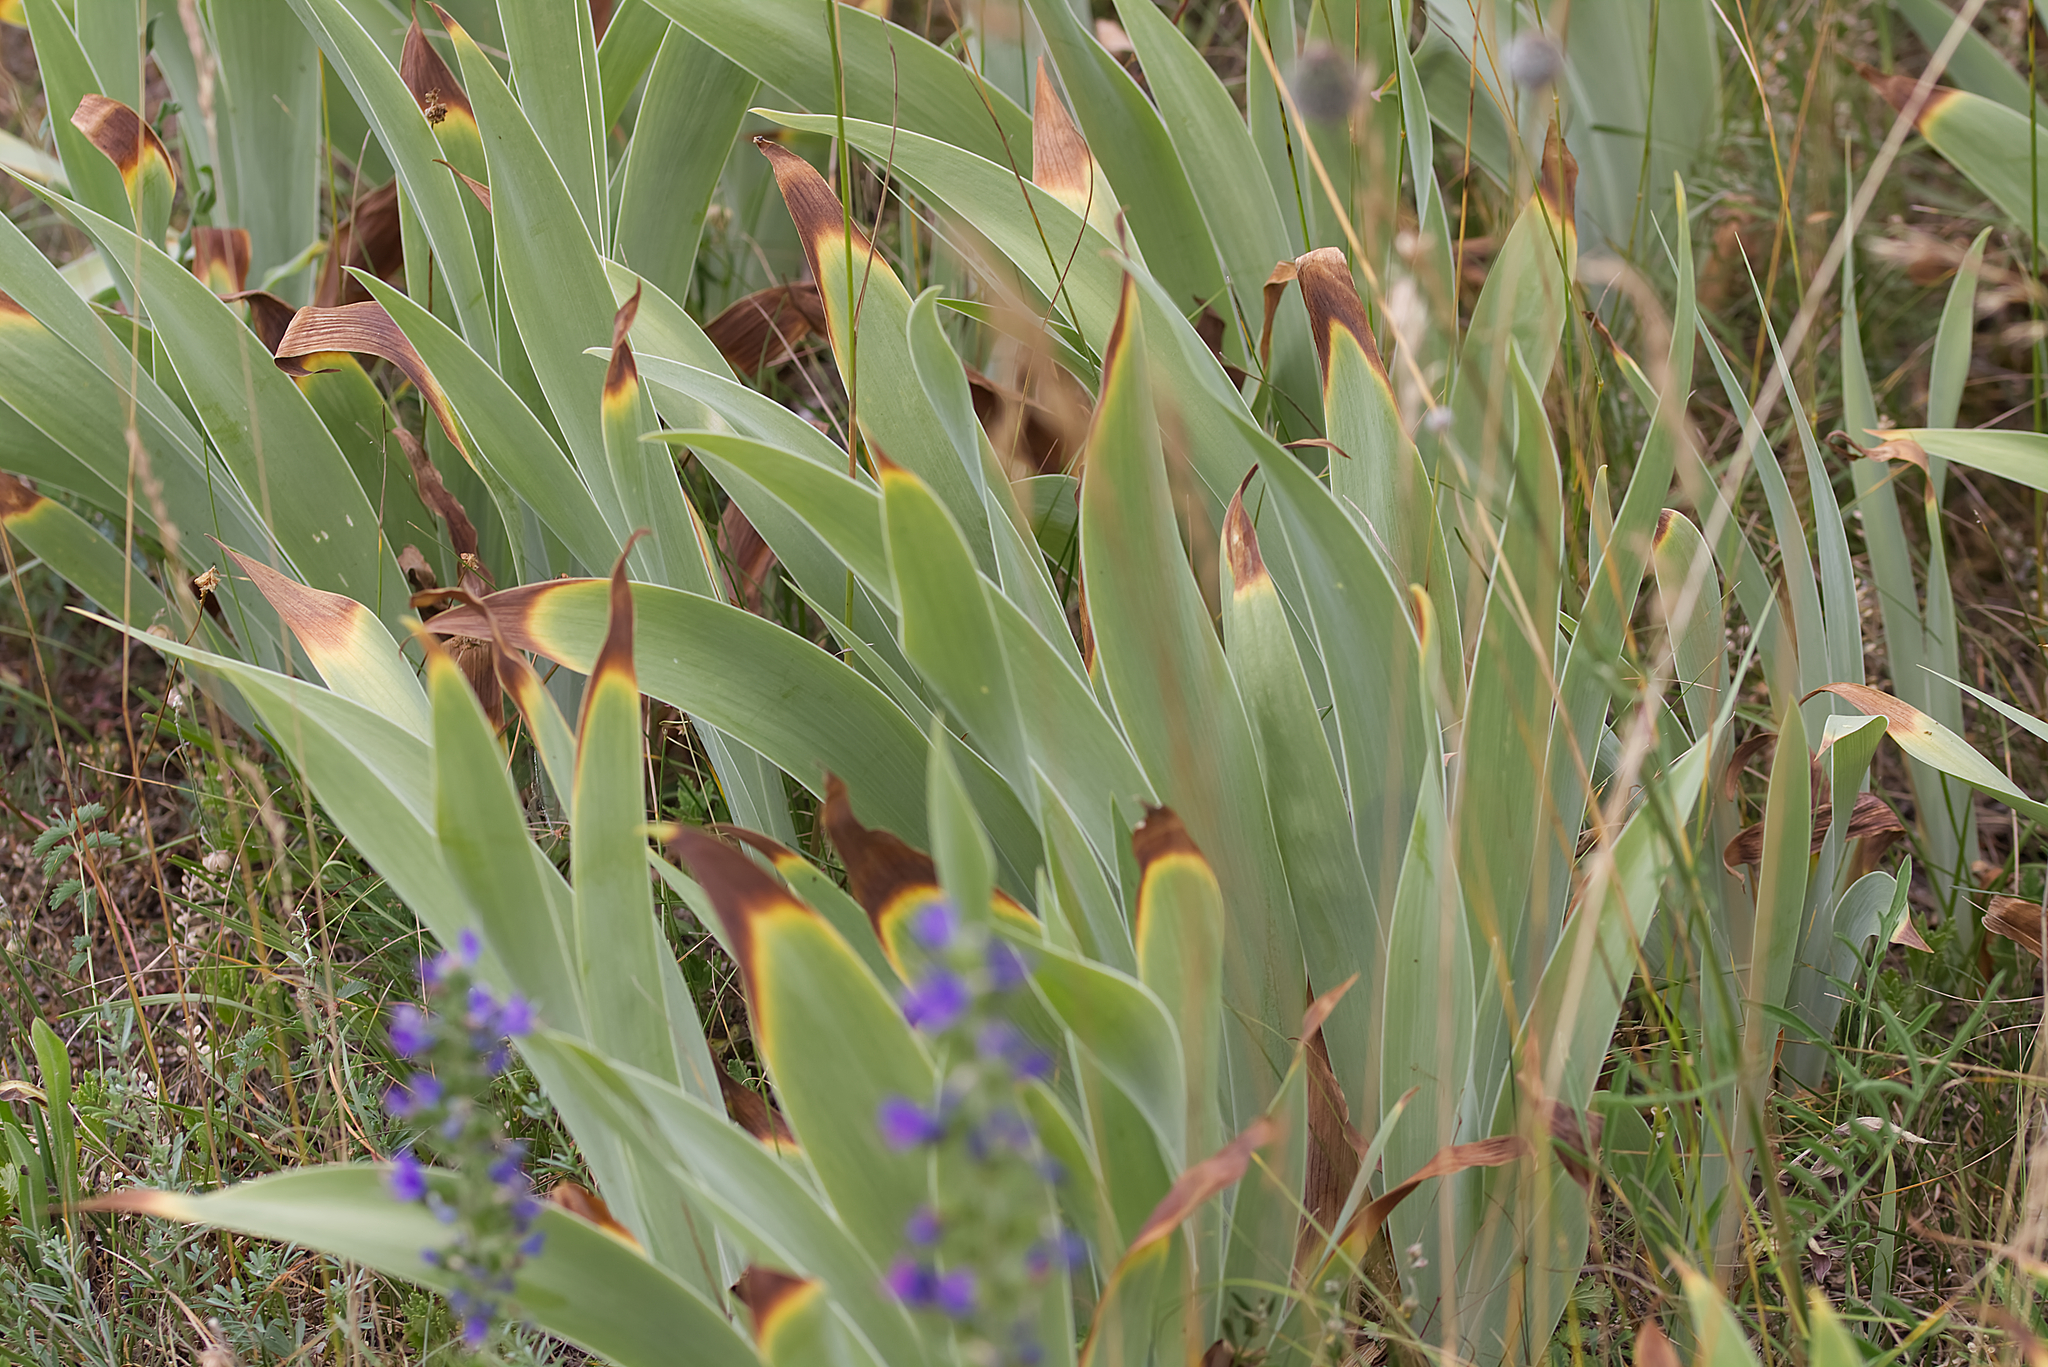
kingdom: Plantae
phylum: Tracheophyta
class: Liliopsida
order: Asparagales
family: Iridaceae
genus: Iris
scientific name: Iris germanica
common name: German iris
